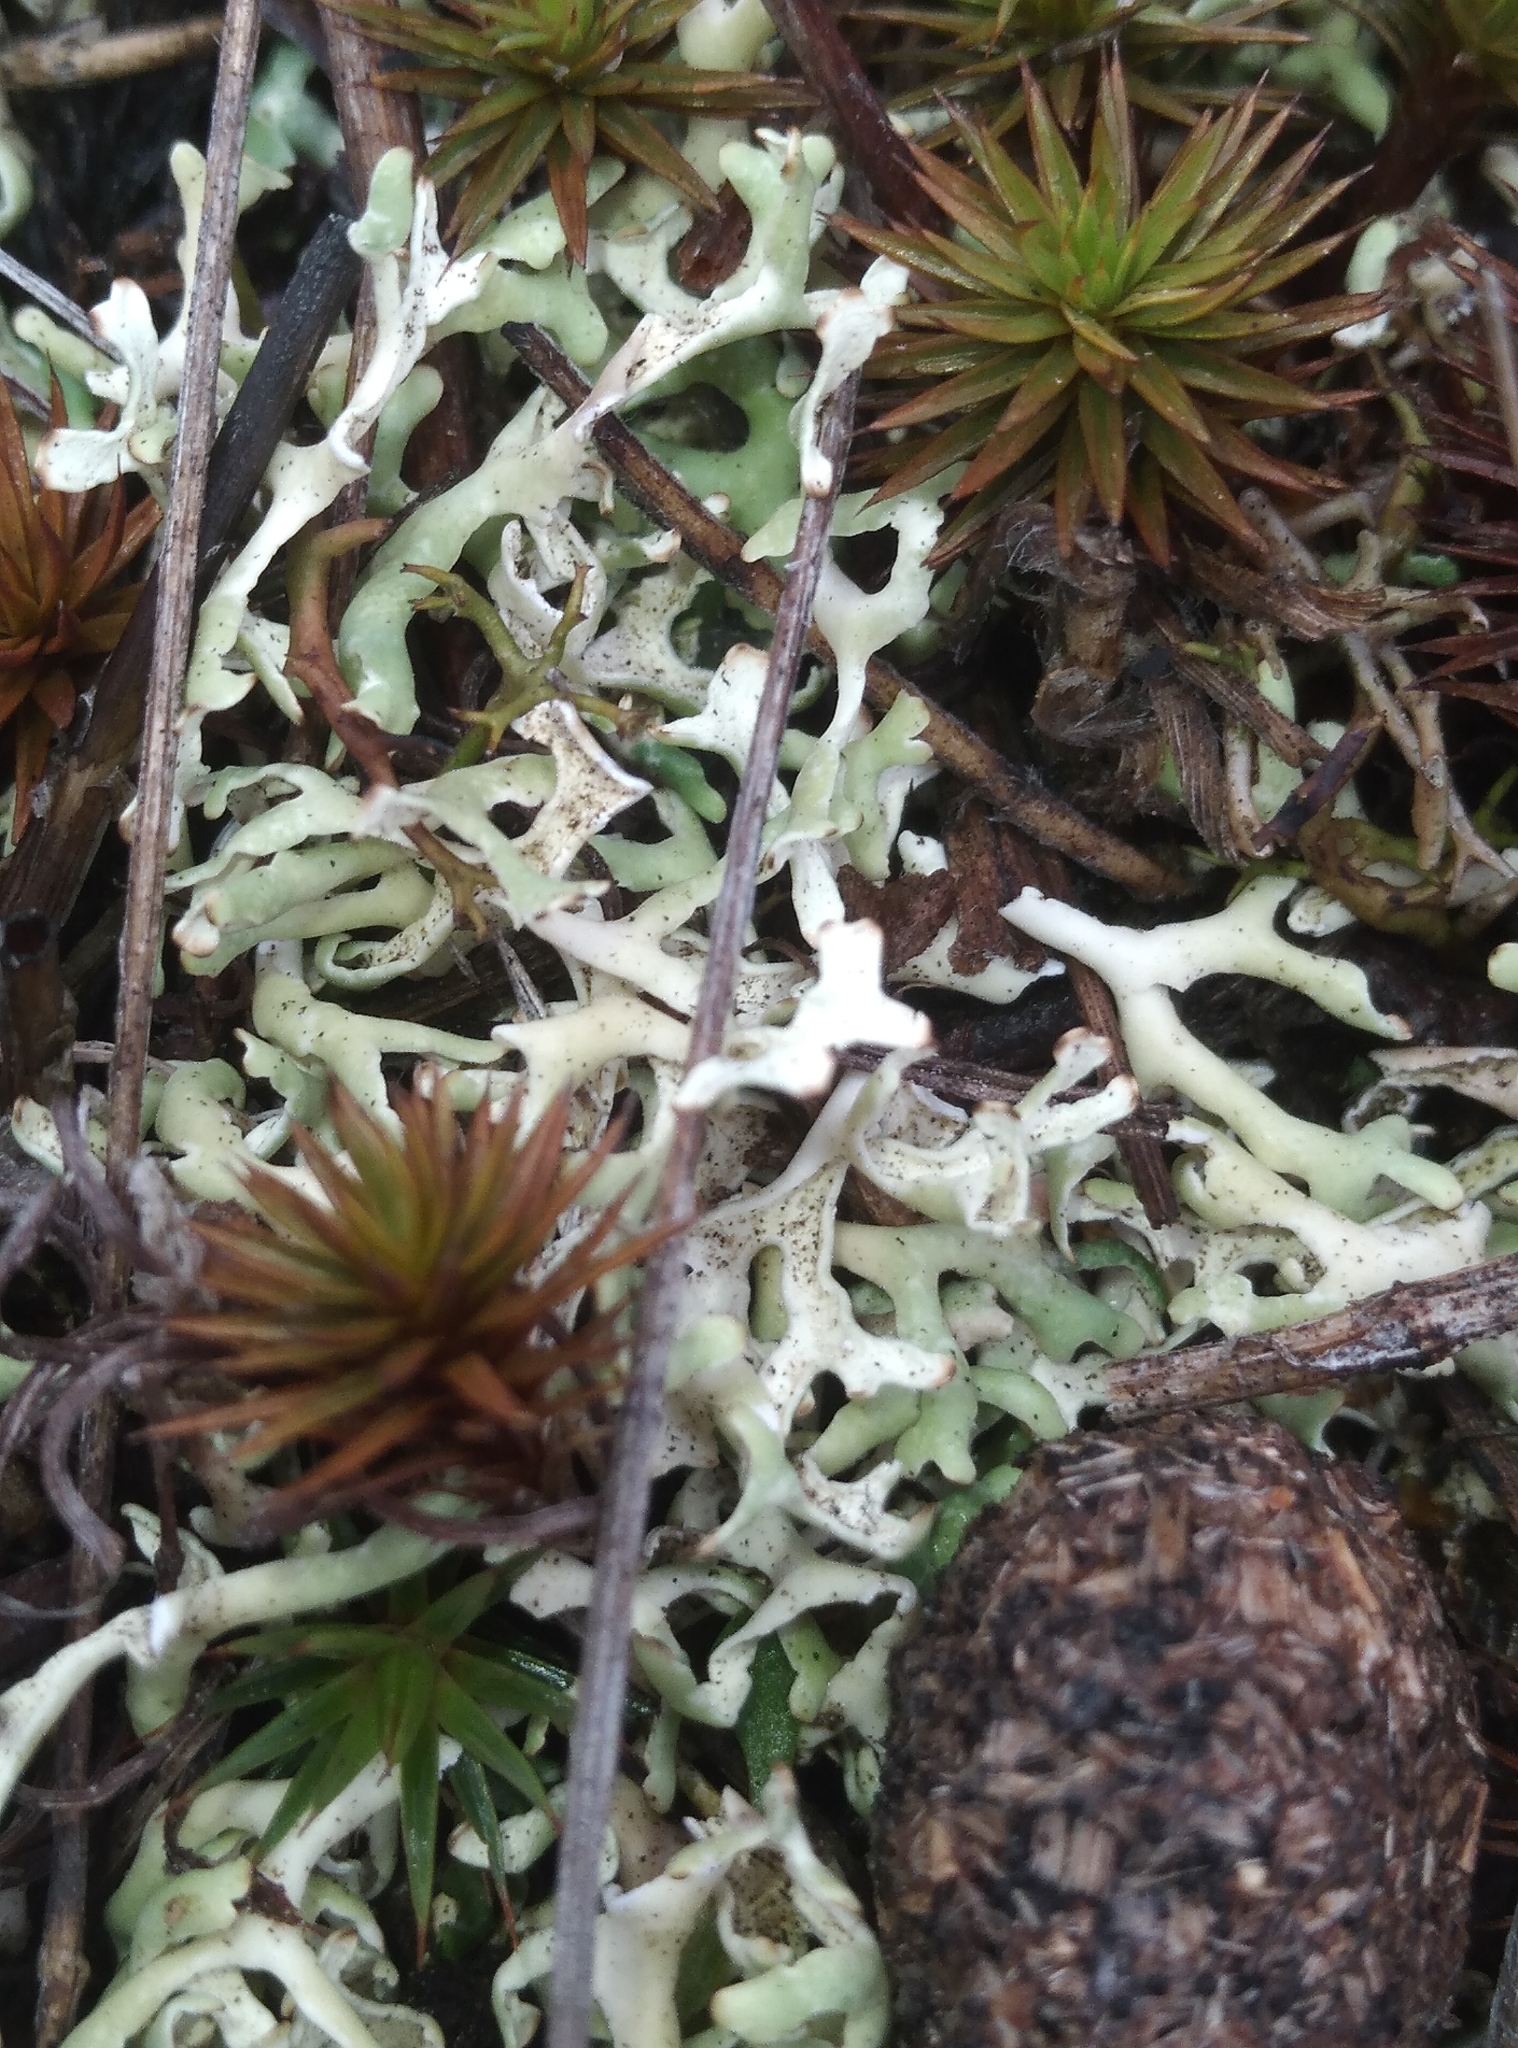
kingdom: Fungi
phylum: Ascomycota
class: Lecanoromycetes
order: Lecanorales
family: Parmeliaceae
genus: Xanthoparmelia
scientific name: Xanthoparmelia semiviridis
